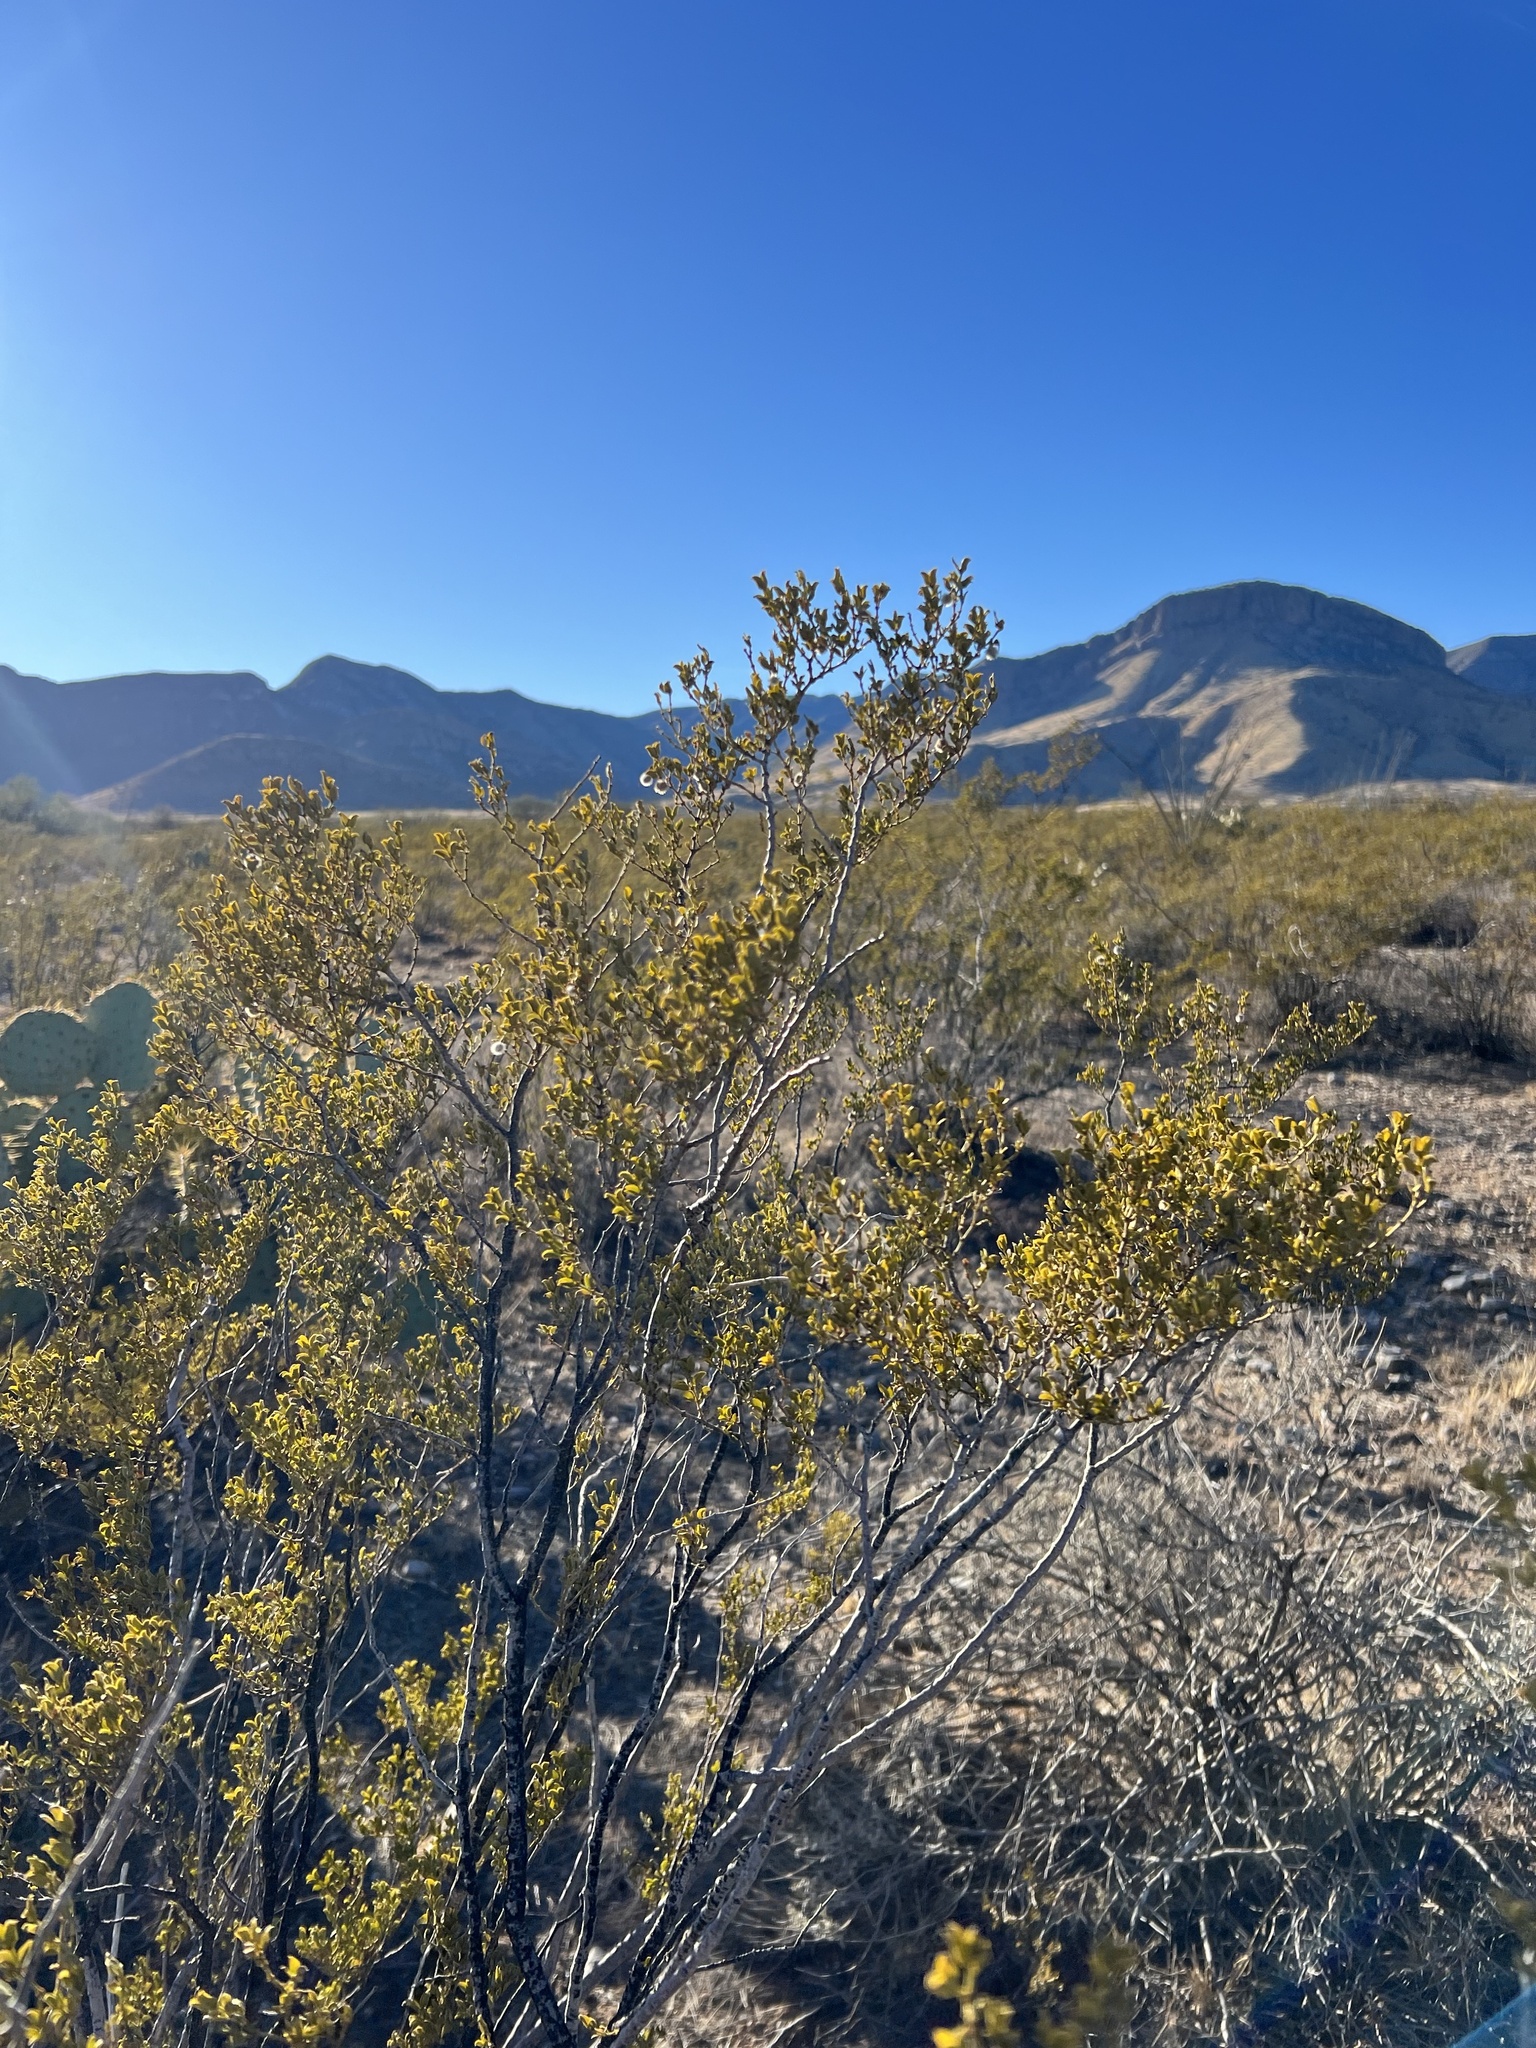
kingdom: Plantae
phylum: Tracheophyta
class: Magnoliopsida
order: Zygophyllales
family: Zygophyllaceae
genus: Larrea
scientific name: Larrea tridentata
